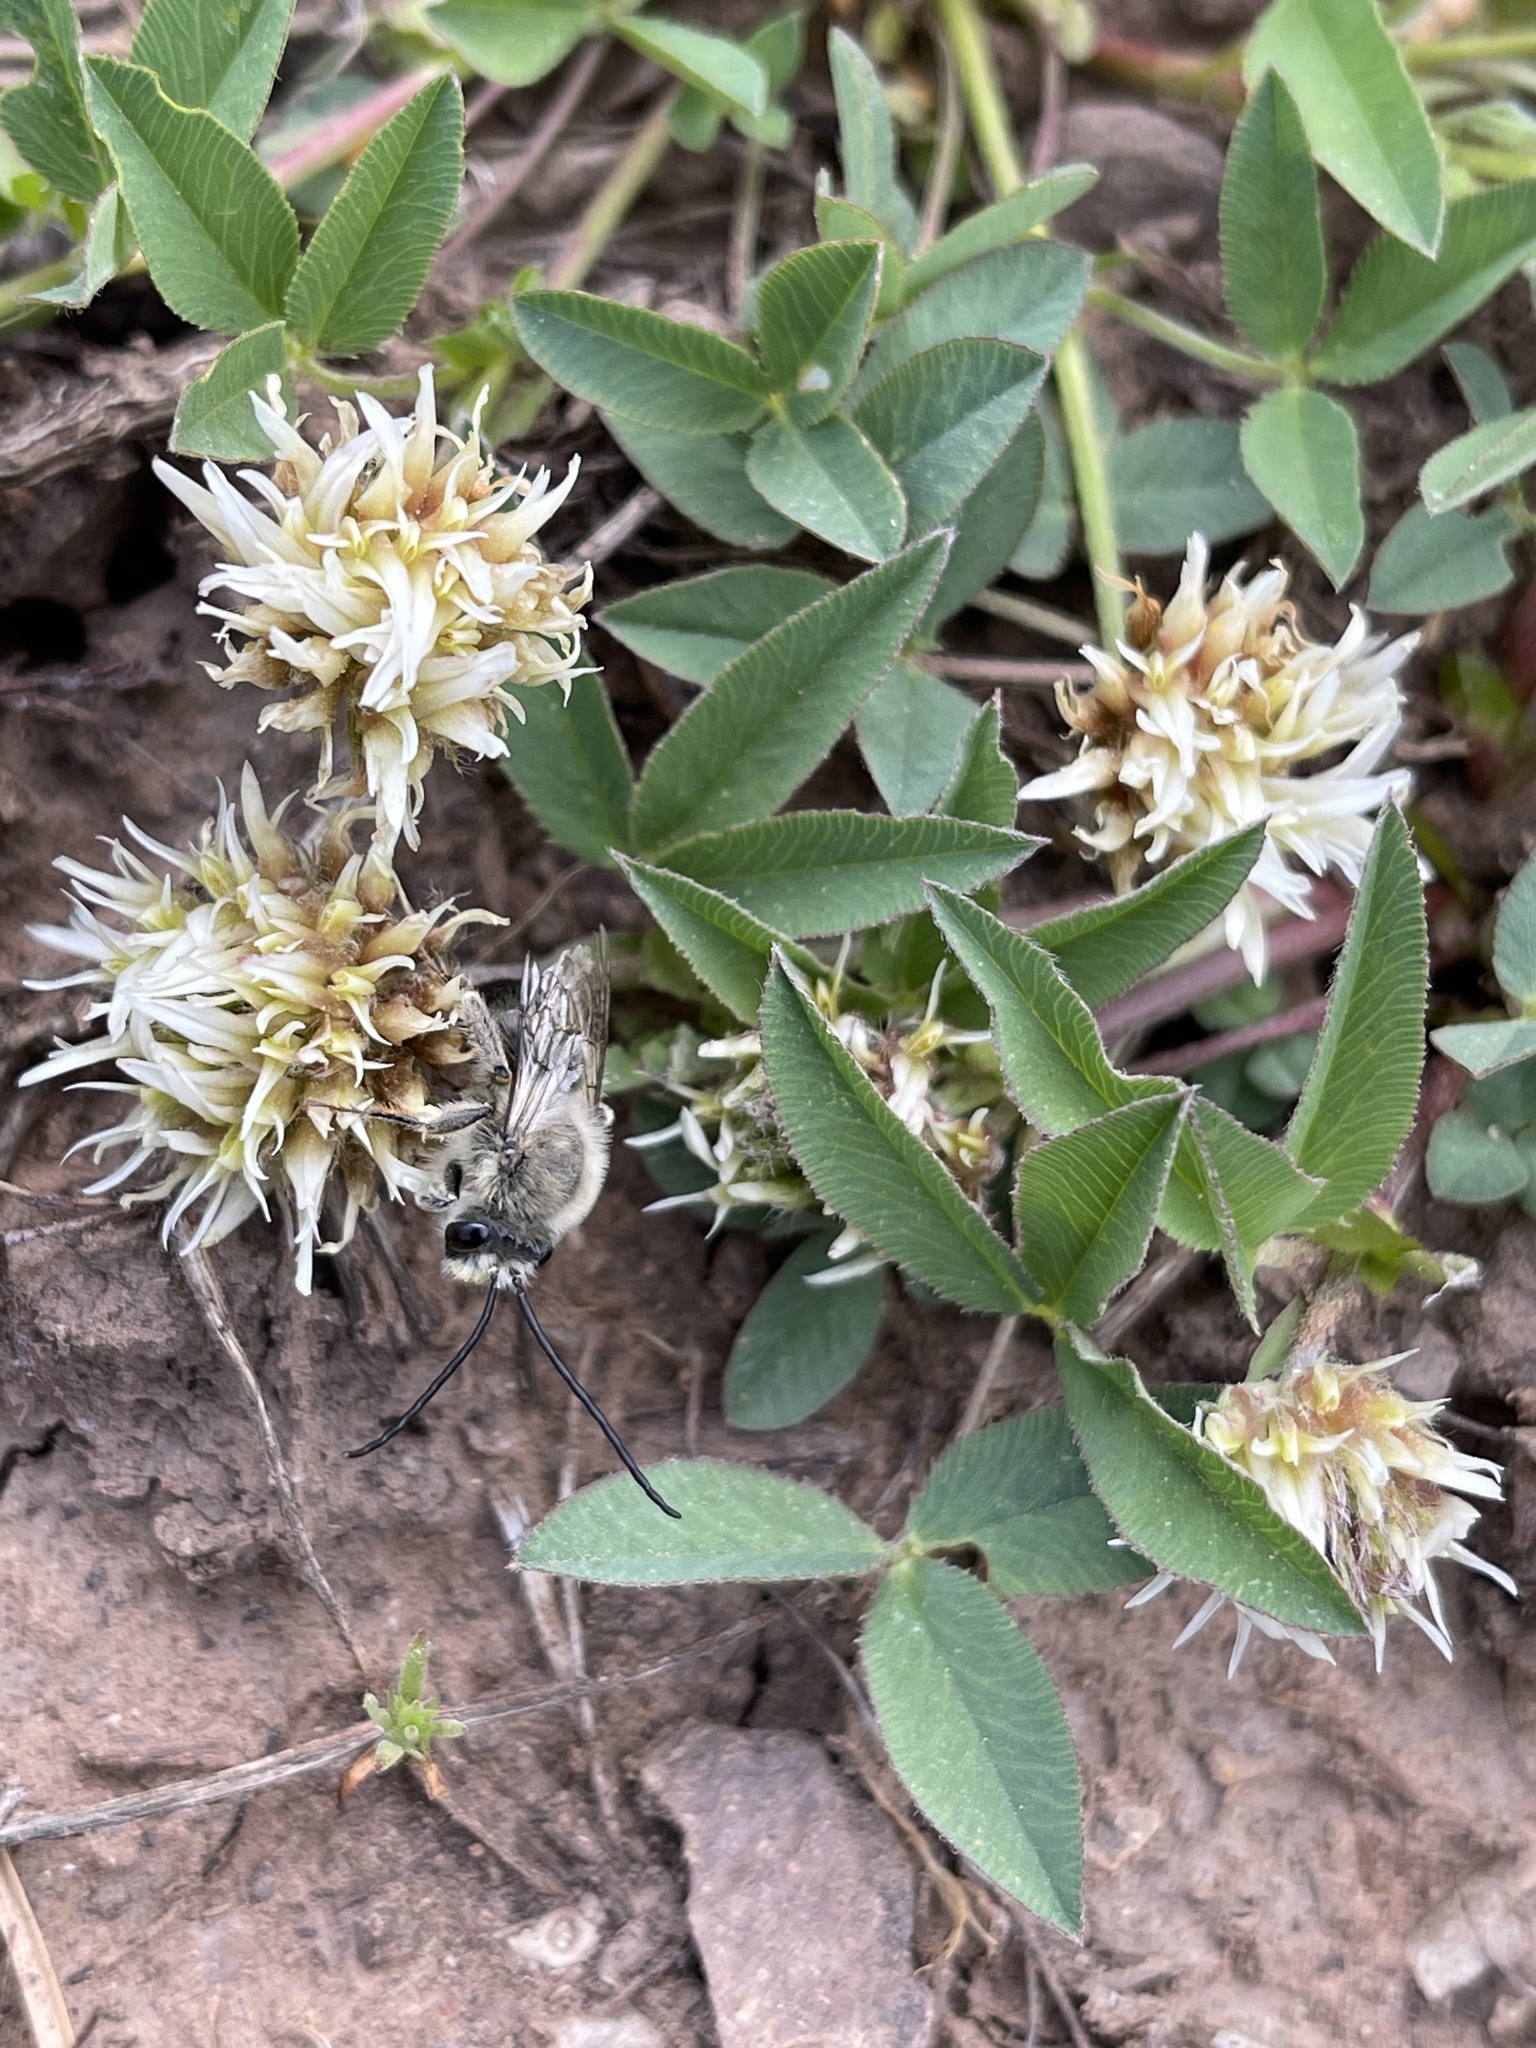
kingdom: Plantae
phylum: Tracheophyta
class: Magnoliopsida
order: Fabales
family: Fabaceae
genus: Trifolium
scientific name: Trifolium longipes
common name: Long-stalk clover
